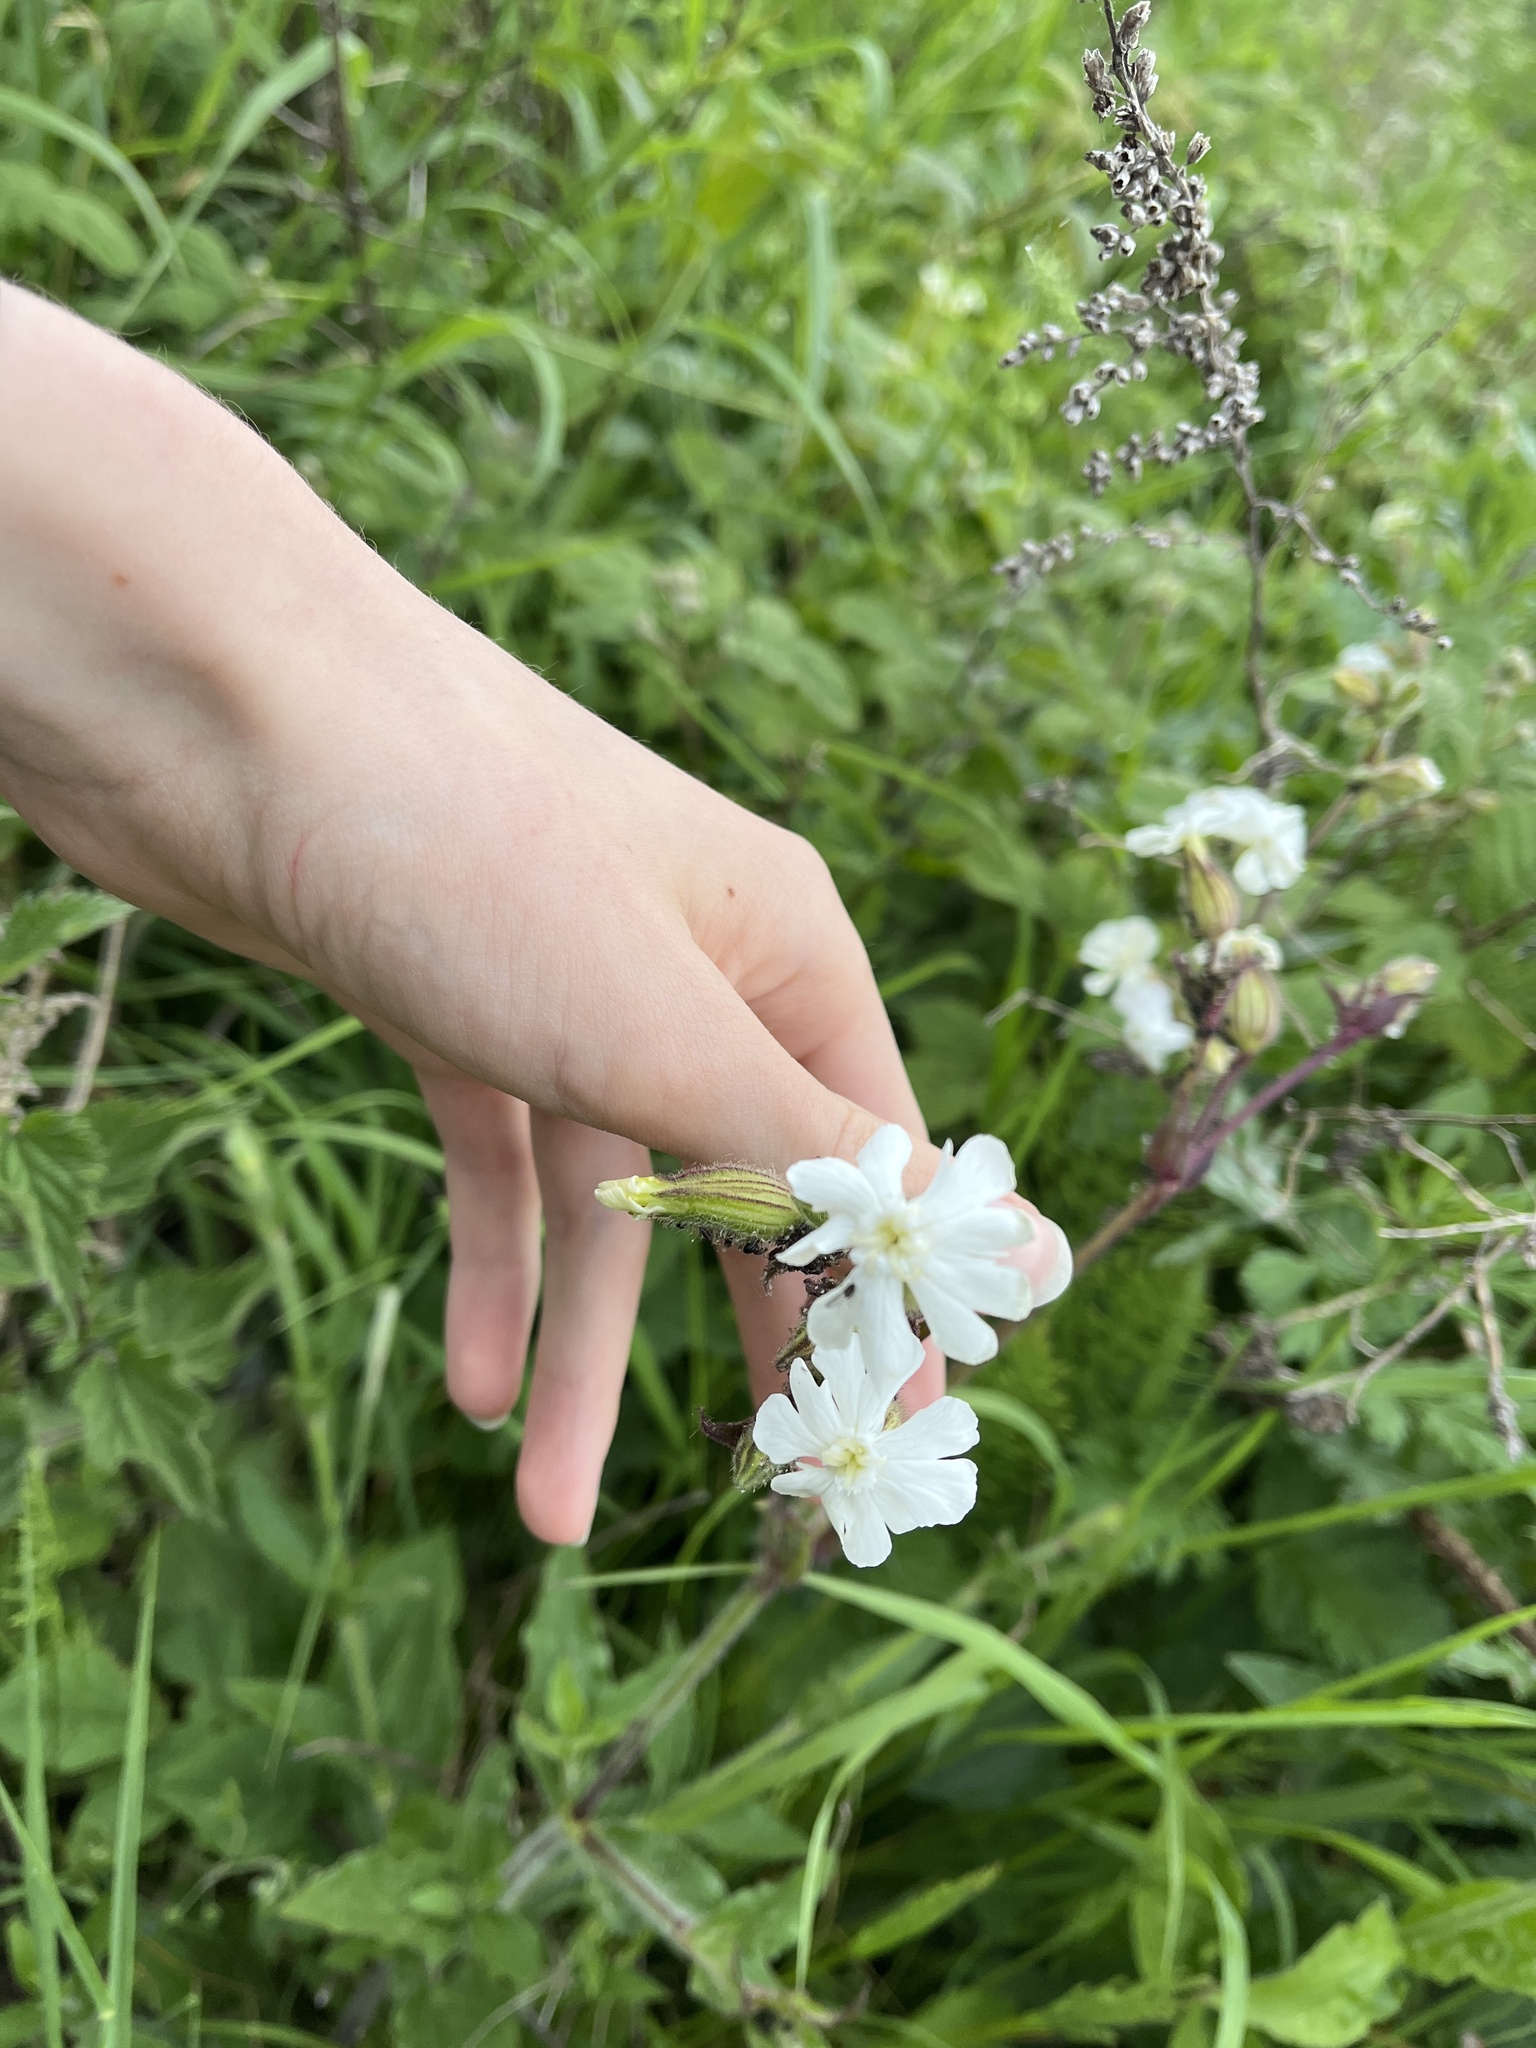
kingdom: Plantae
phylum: Tracheophyta
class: Magnoliopsida
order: Caryophyllales
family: Caryophyllaceae
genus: Silene
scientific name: Silene latifolia
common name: White campion
